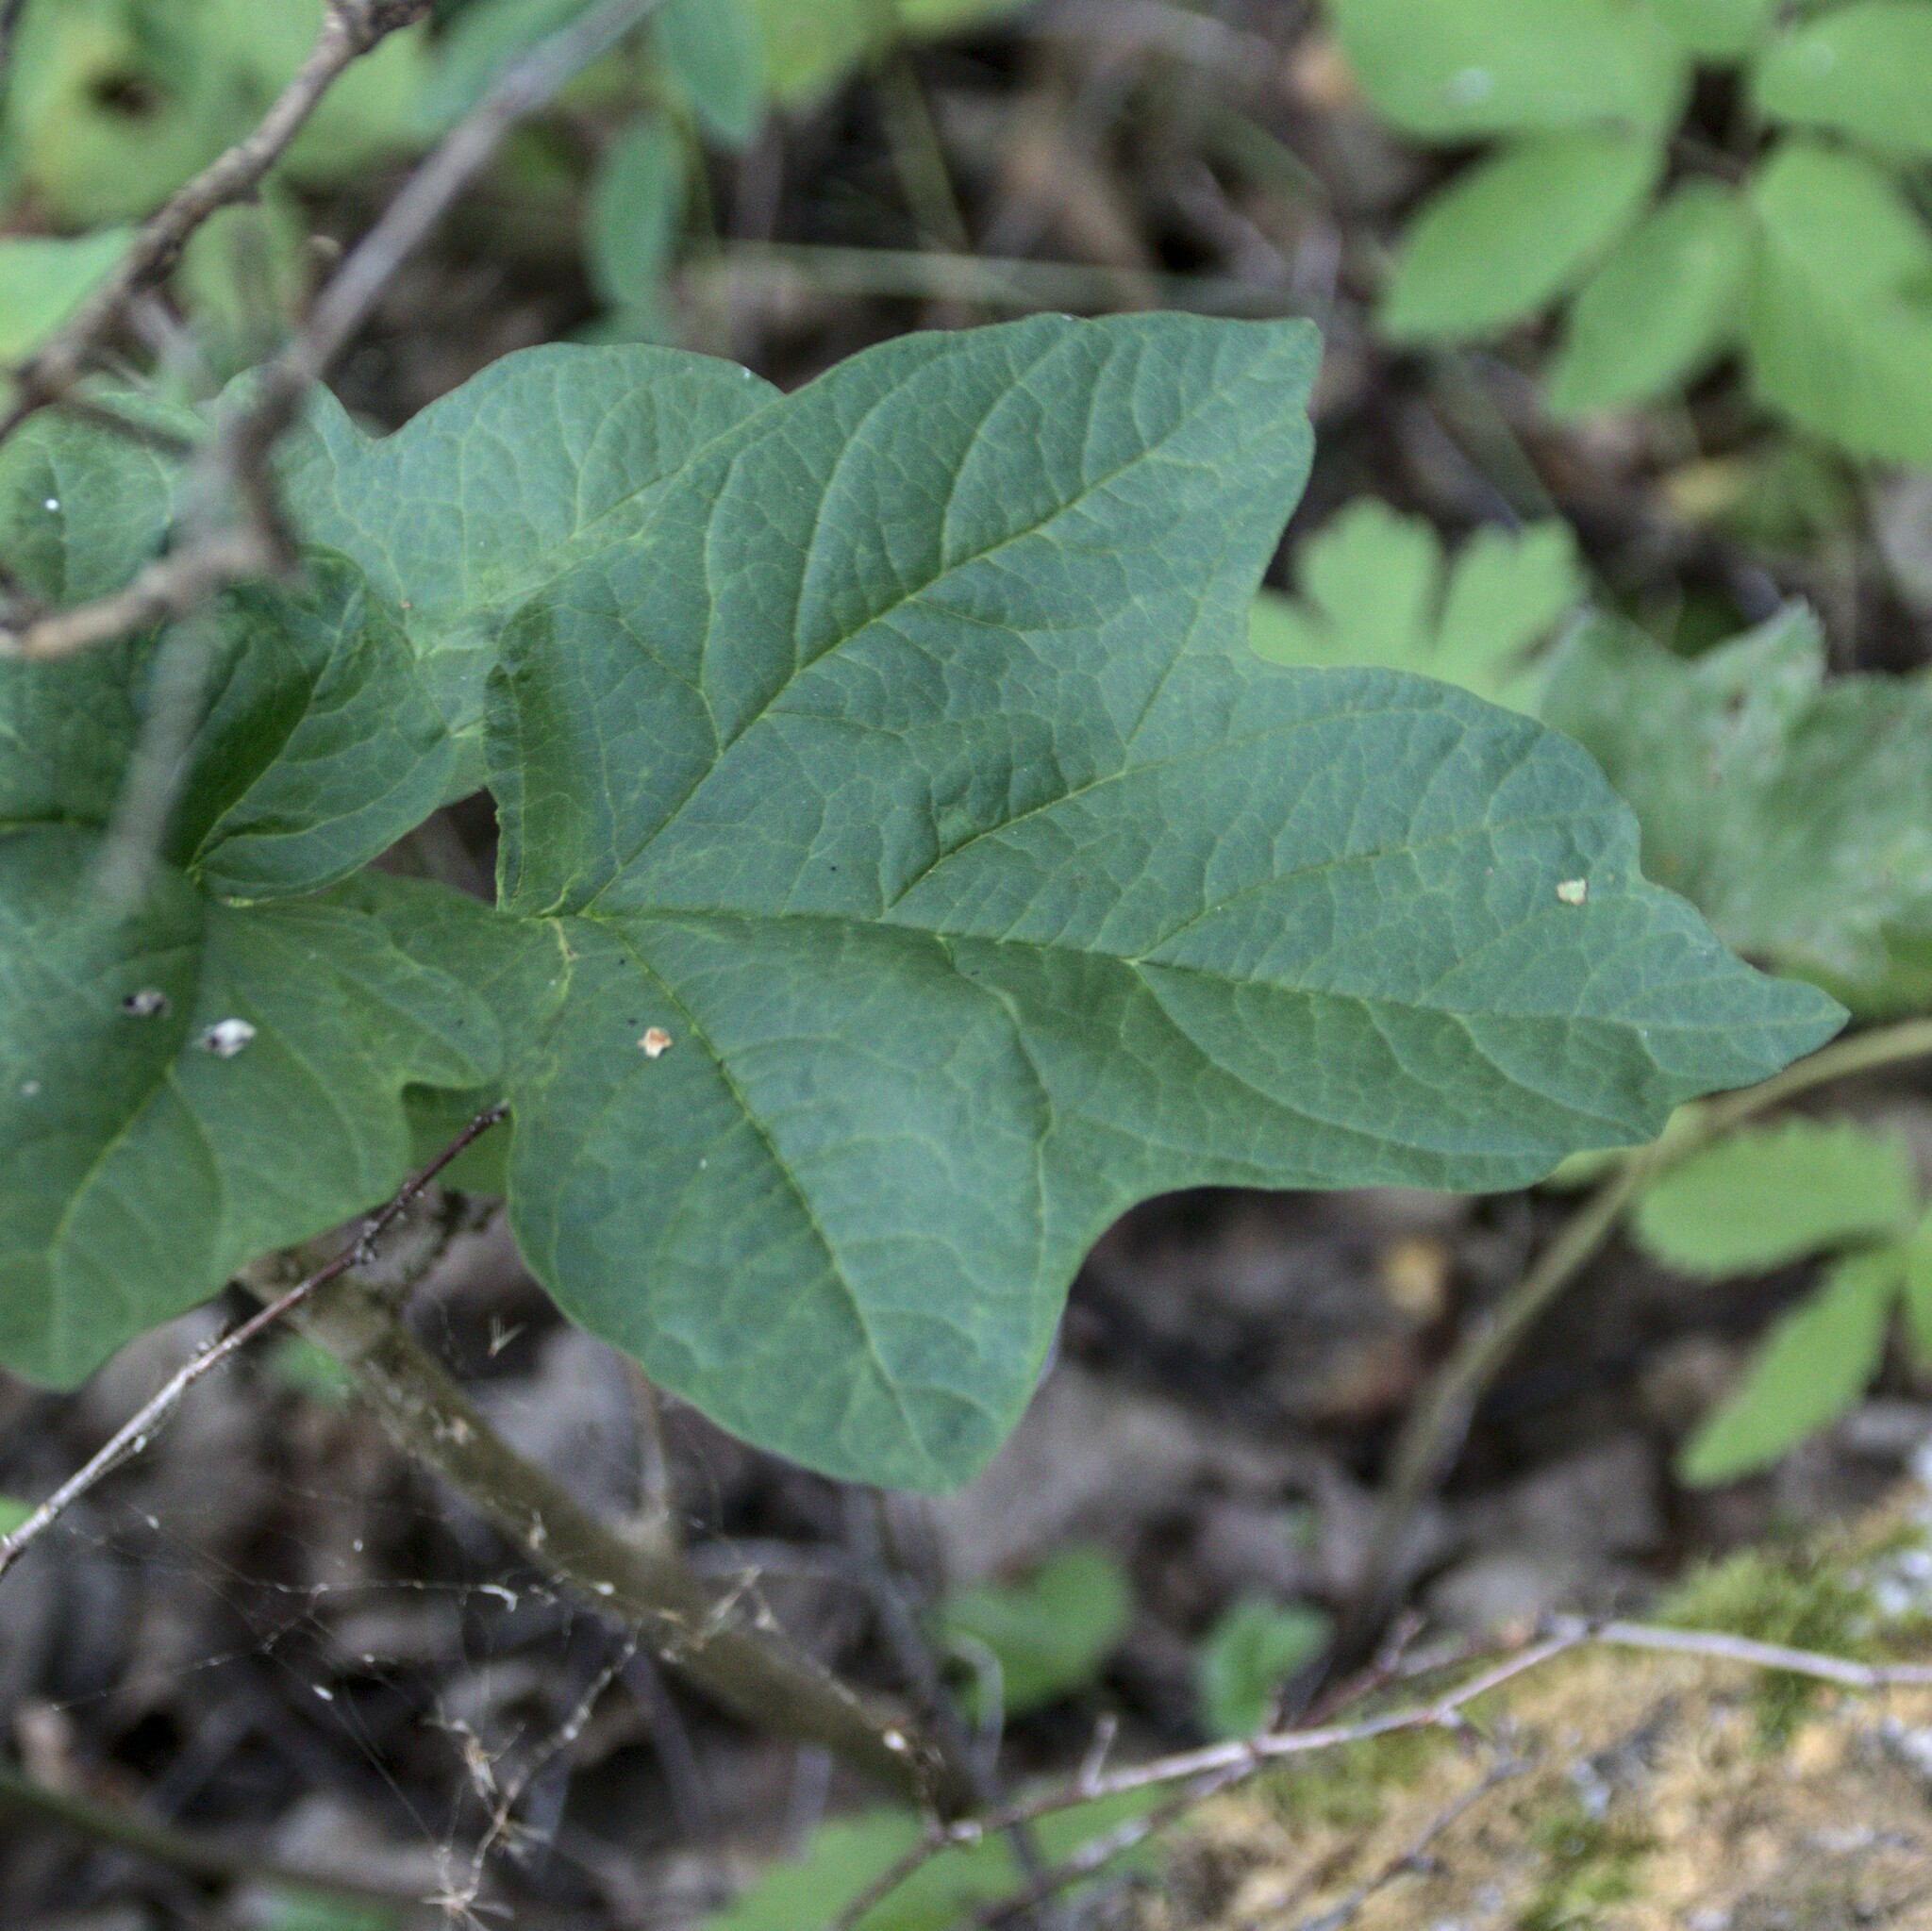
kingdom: Plantae
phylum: Tracheophyta
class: Magnoliopsida
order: Dipsacales
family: Viburnaceae
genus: Viburnum
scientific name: Viburnum opulus
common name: Guelder-rose
